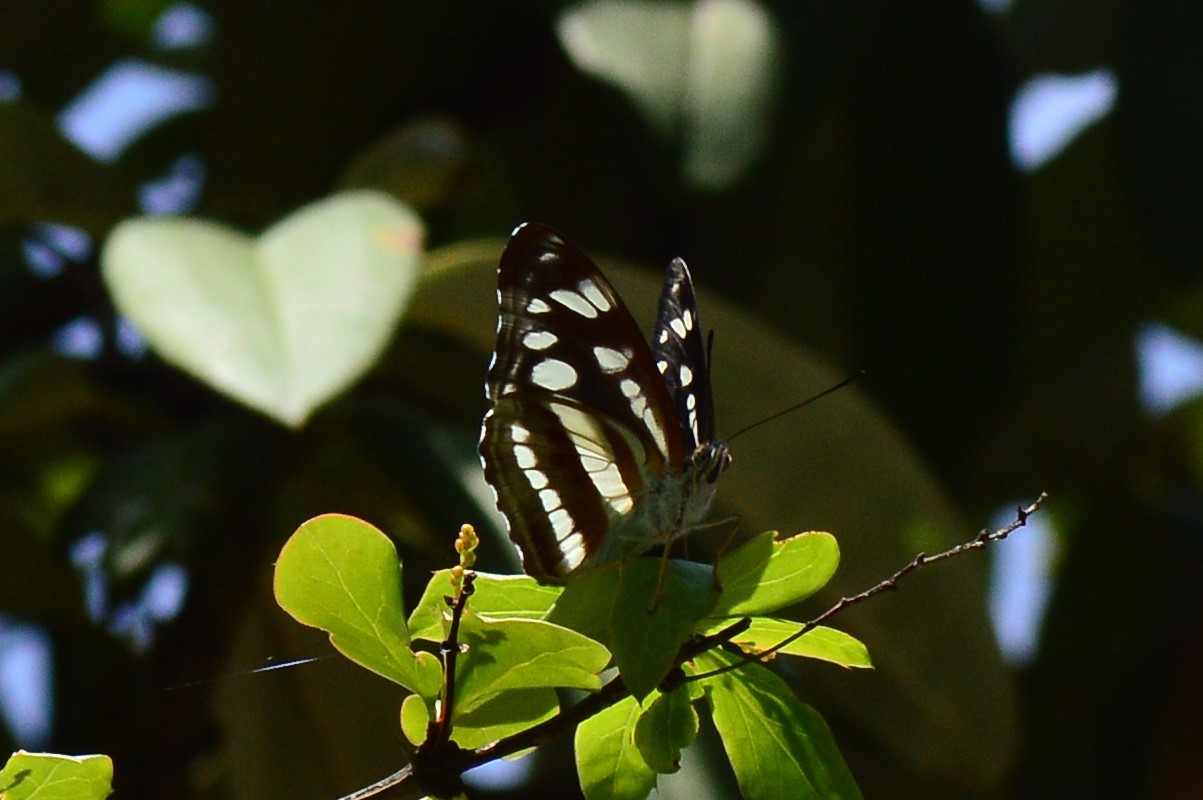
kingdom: Animalia
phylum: Arthropoda
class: Insecta
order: Lepidoptera
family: Nymphalidae
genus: Parathyma
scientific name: Parathyma opalina
